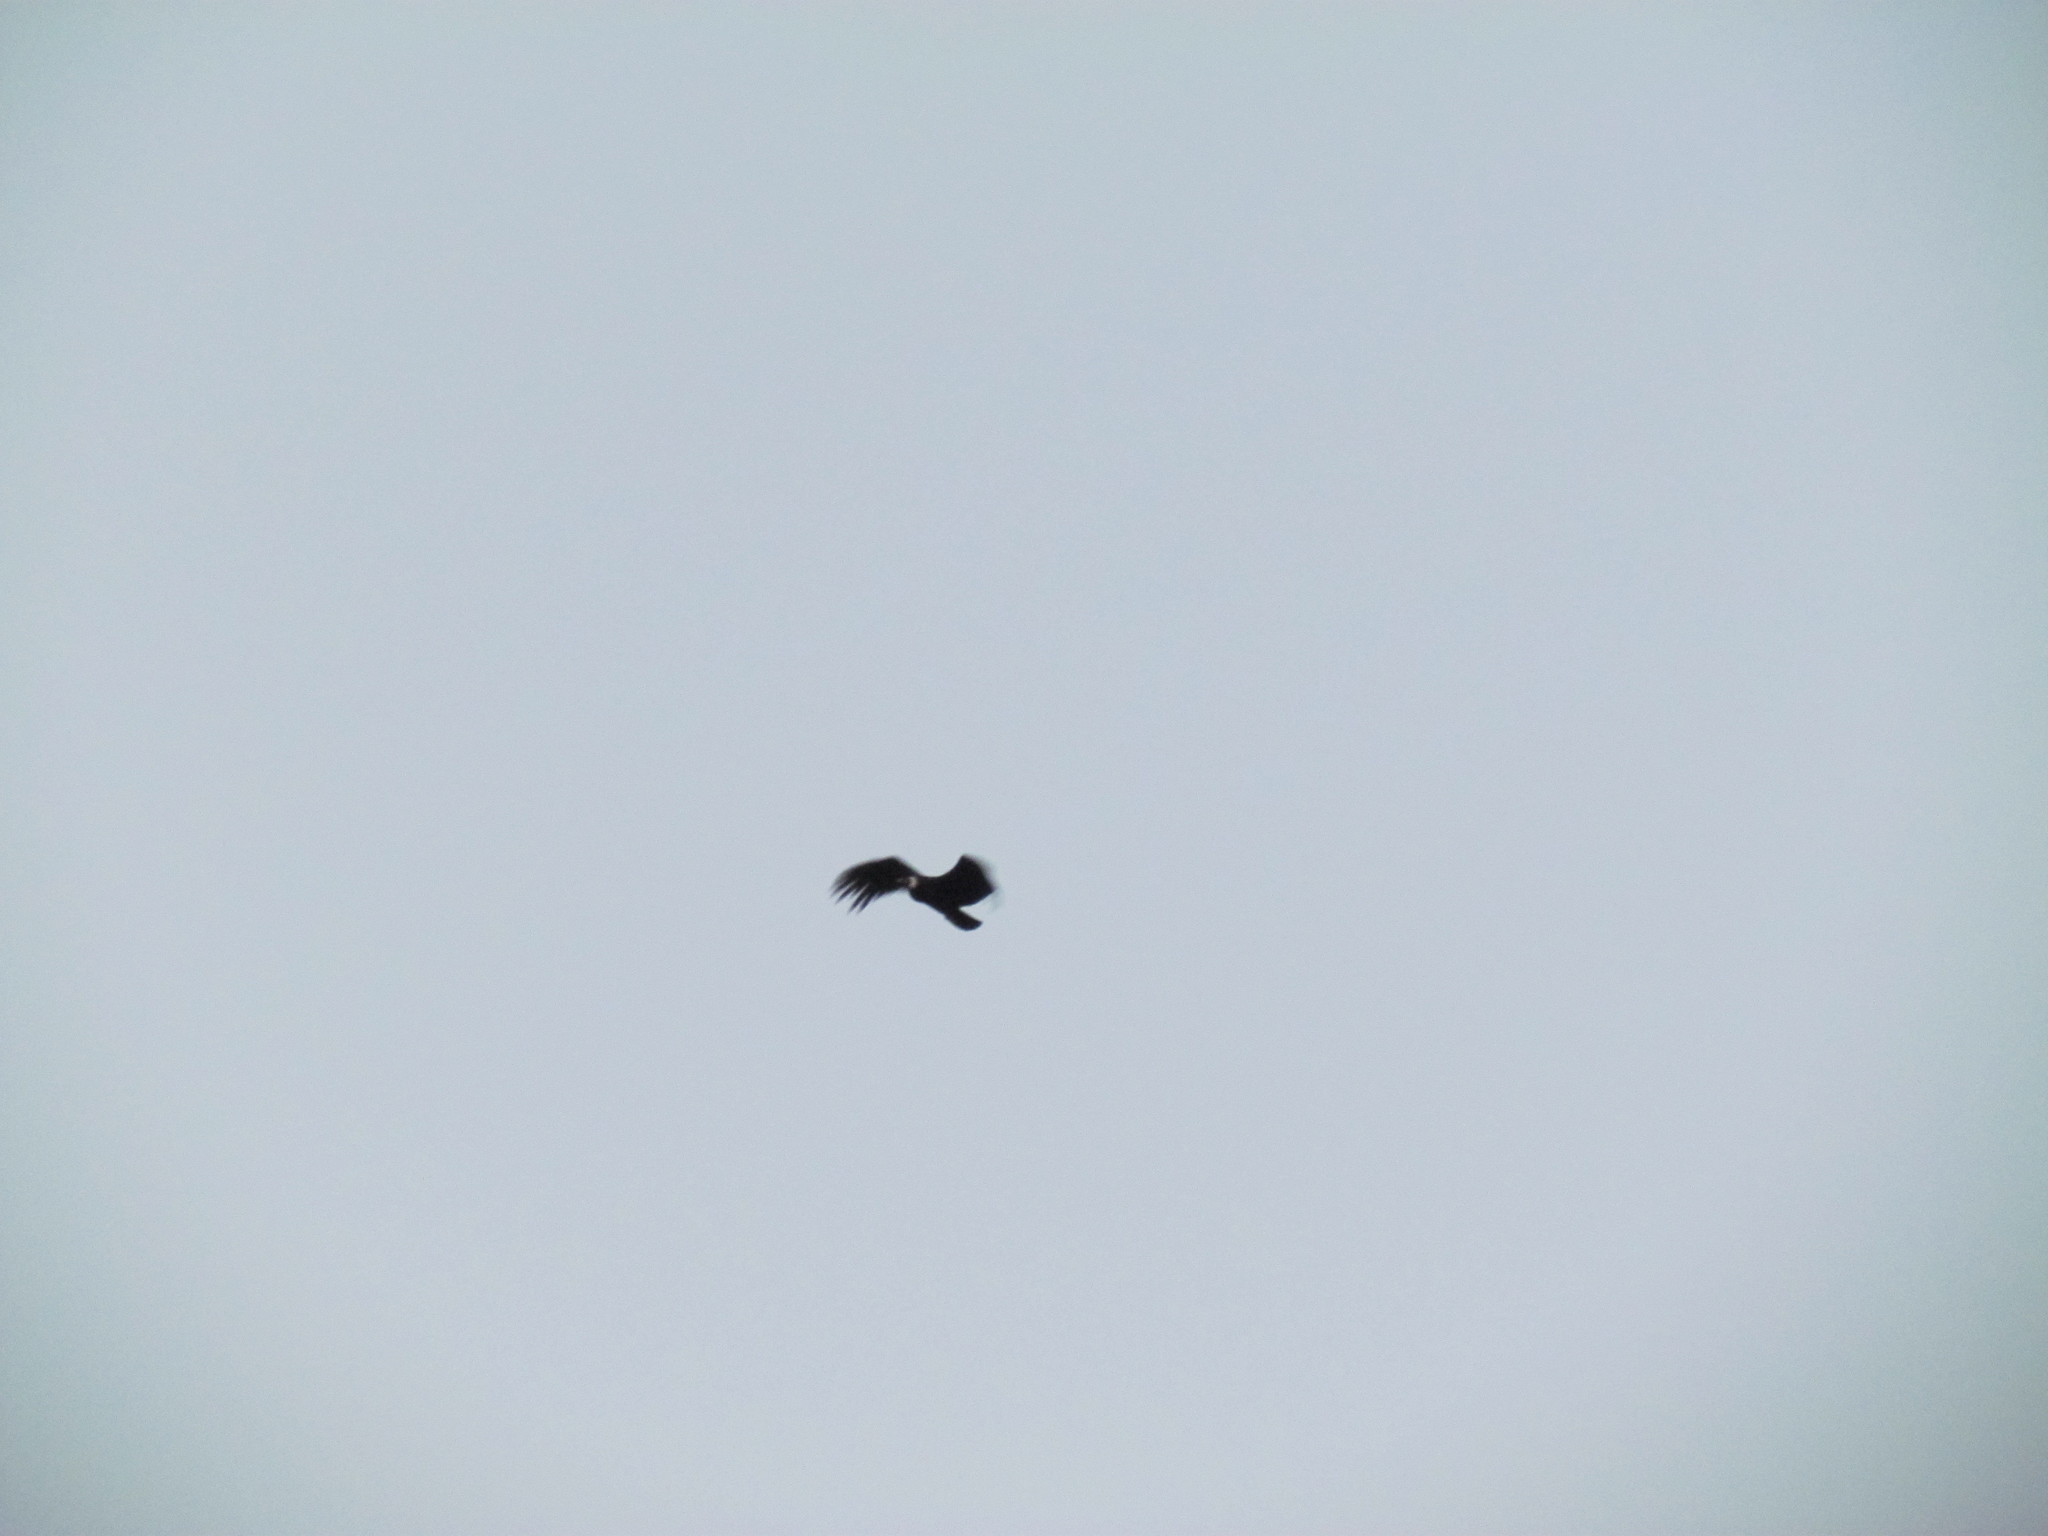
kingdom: Animalia
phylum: Chordata
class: Aves
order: Accipitriformes
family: Cathartidae
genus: Vultur
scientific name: Vultur gryphus
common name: Andean condor
